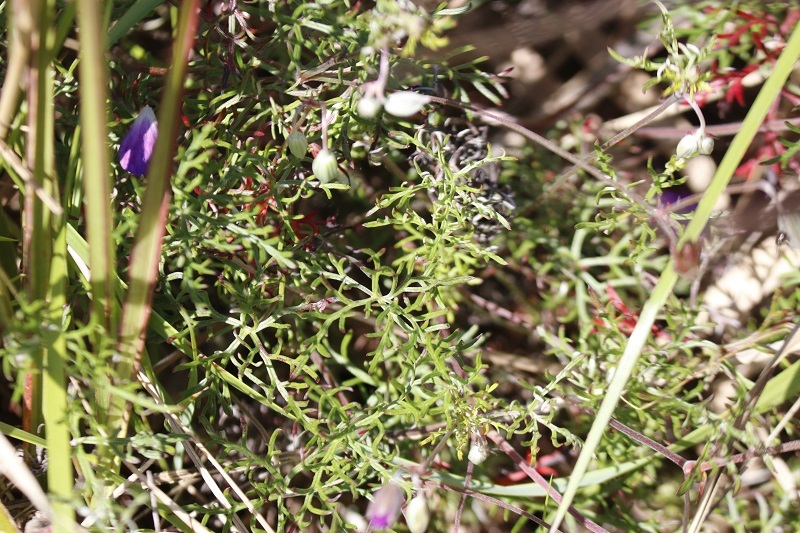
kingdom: Plantae
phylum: Tracheophyta
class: Magnoliopsida
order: Geraniales
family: Geraniaceae
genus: Geranium
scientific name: Geranium incanum
